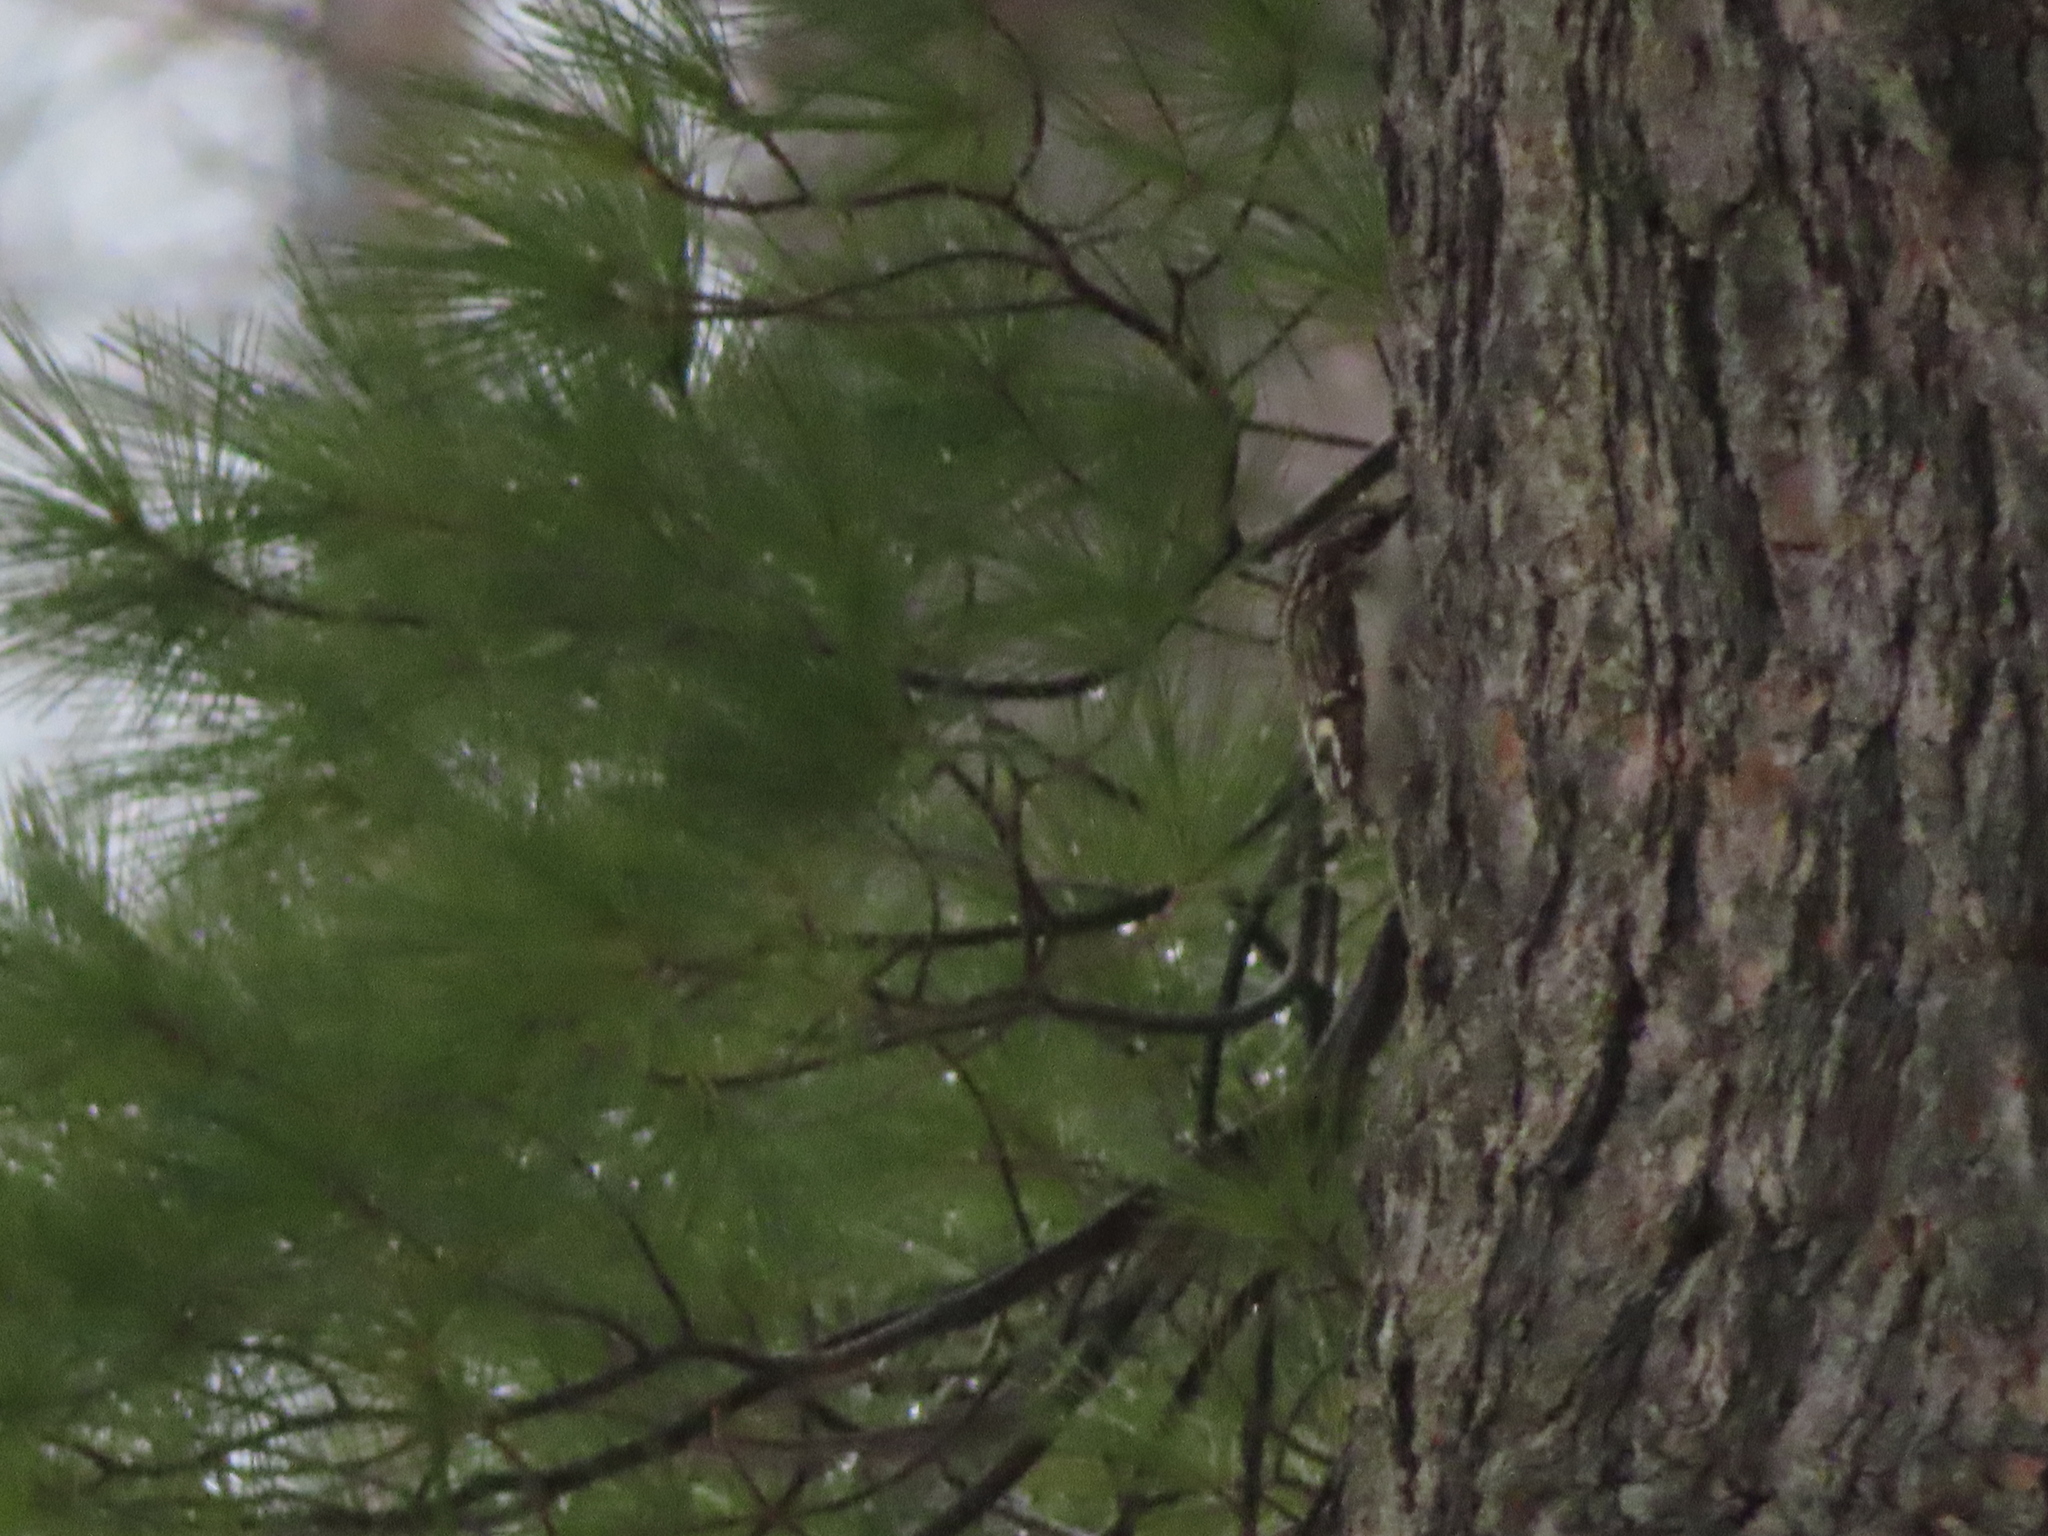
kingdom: Animalia
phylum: Chordata
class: Aves
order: Passeriformes
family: Certhiidae
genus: Certhia
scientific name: Certhia americana
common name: Brown creeper
